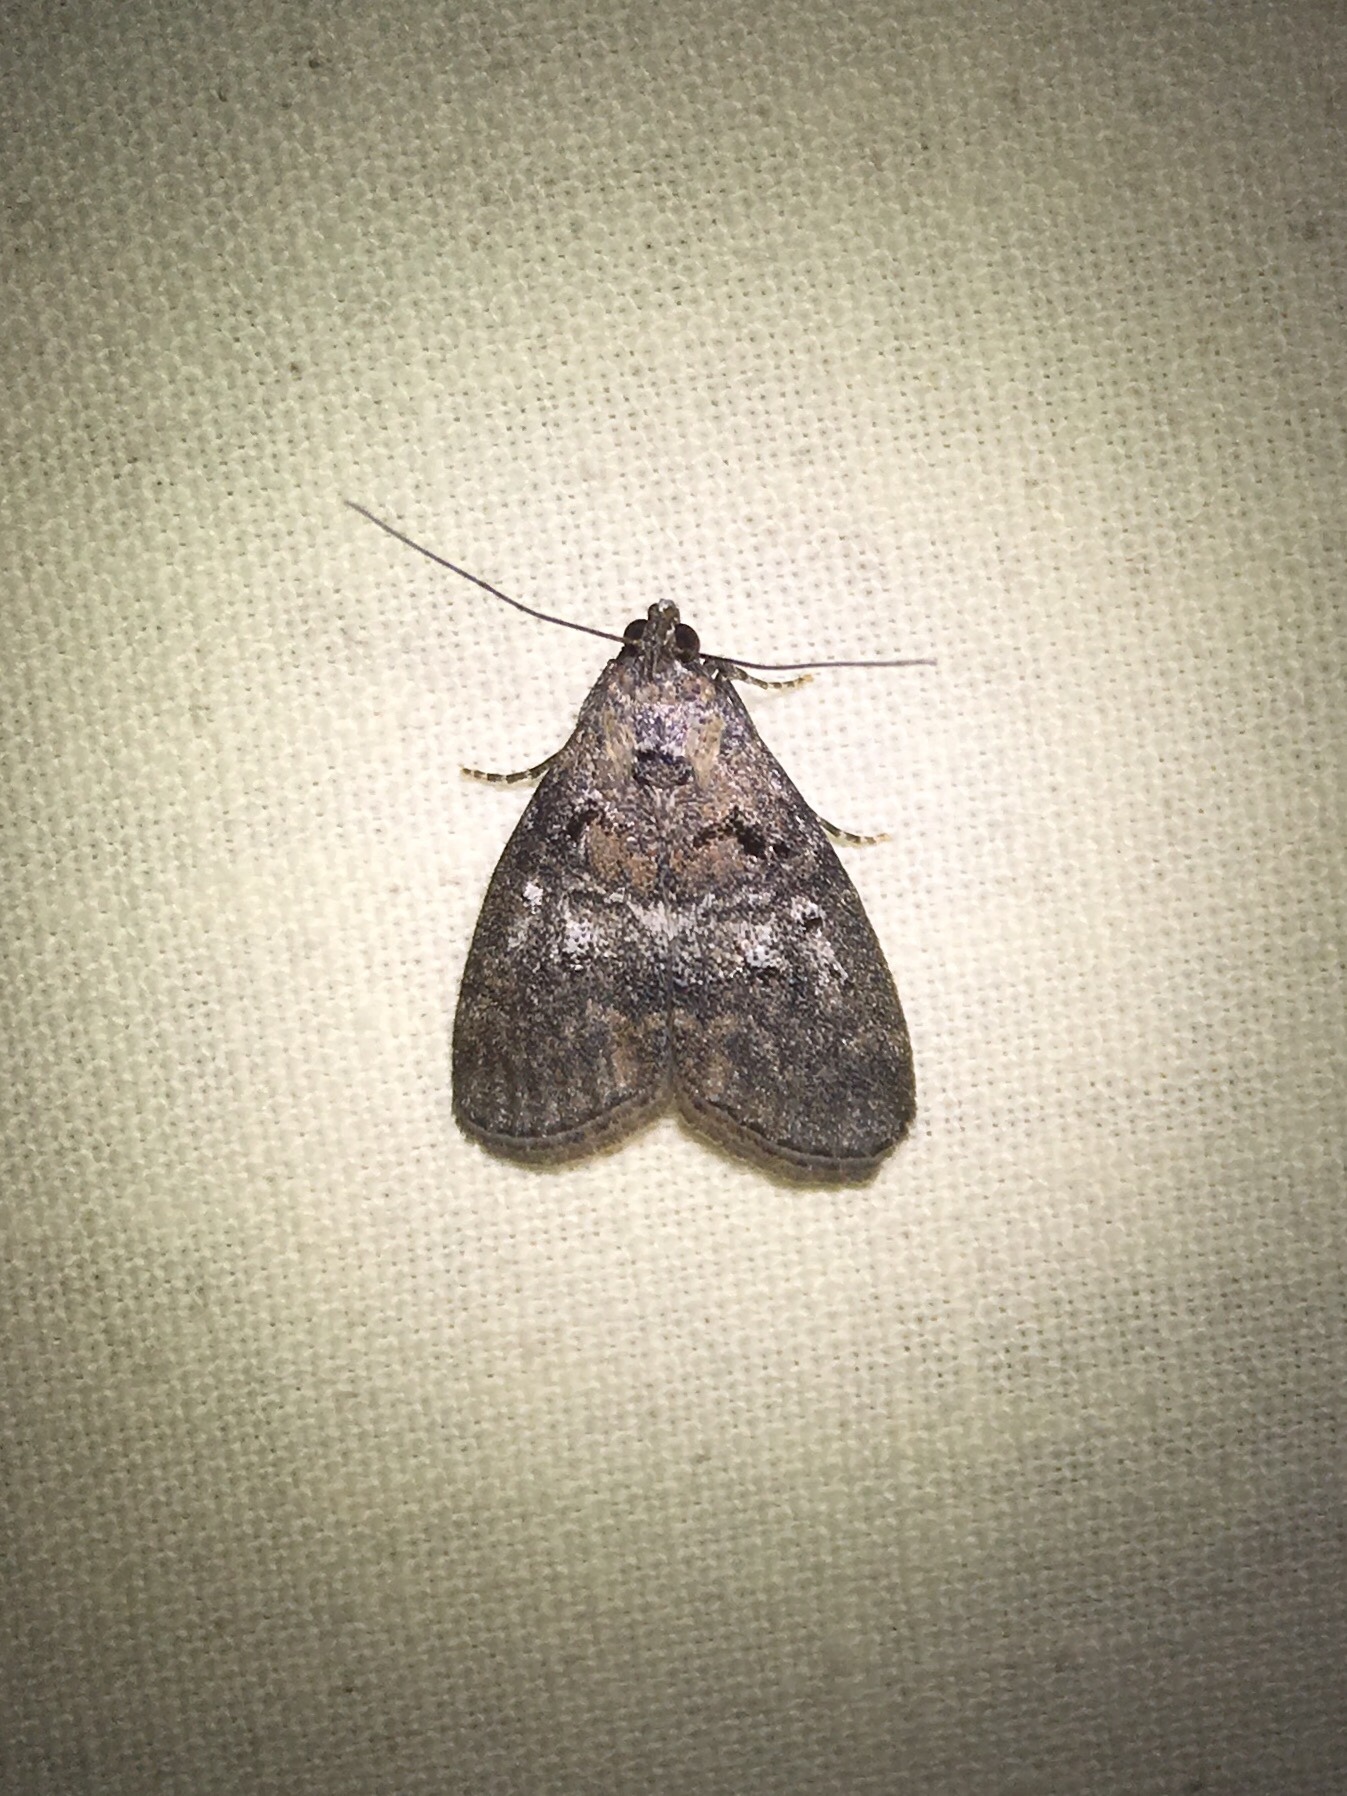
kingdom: Animalia
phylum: Arthropoda
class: Insecta
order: Lepidoptera
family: Pyralidae
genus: Pococera
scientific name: Pococera asperatella
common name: Maple webworm moth
